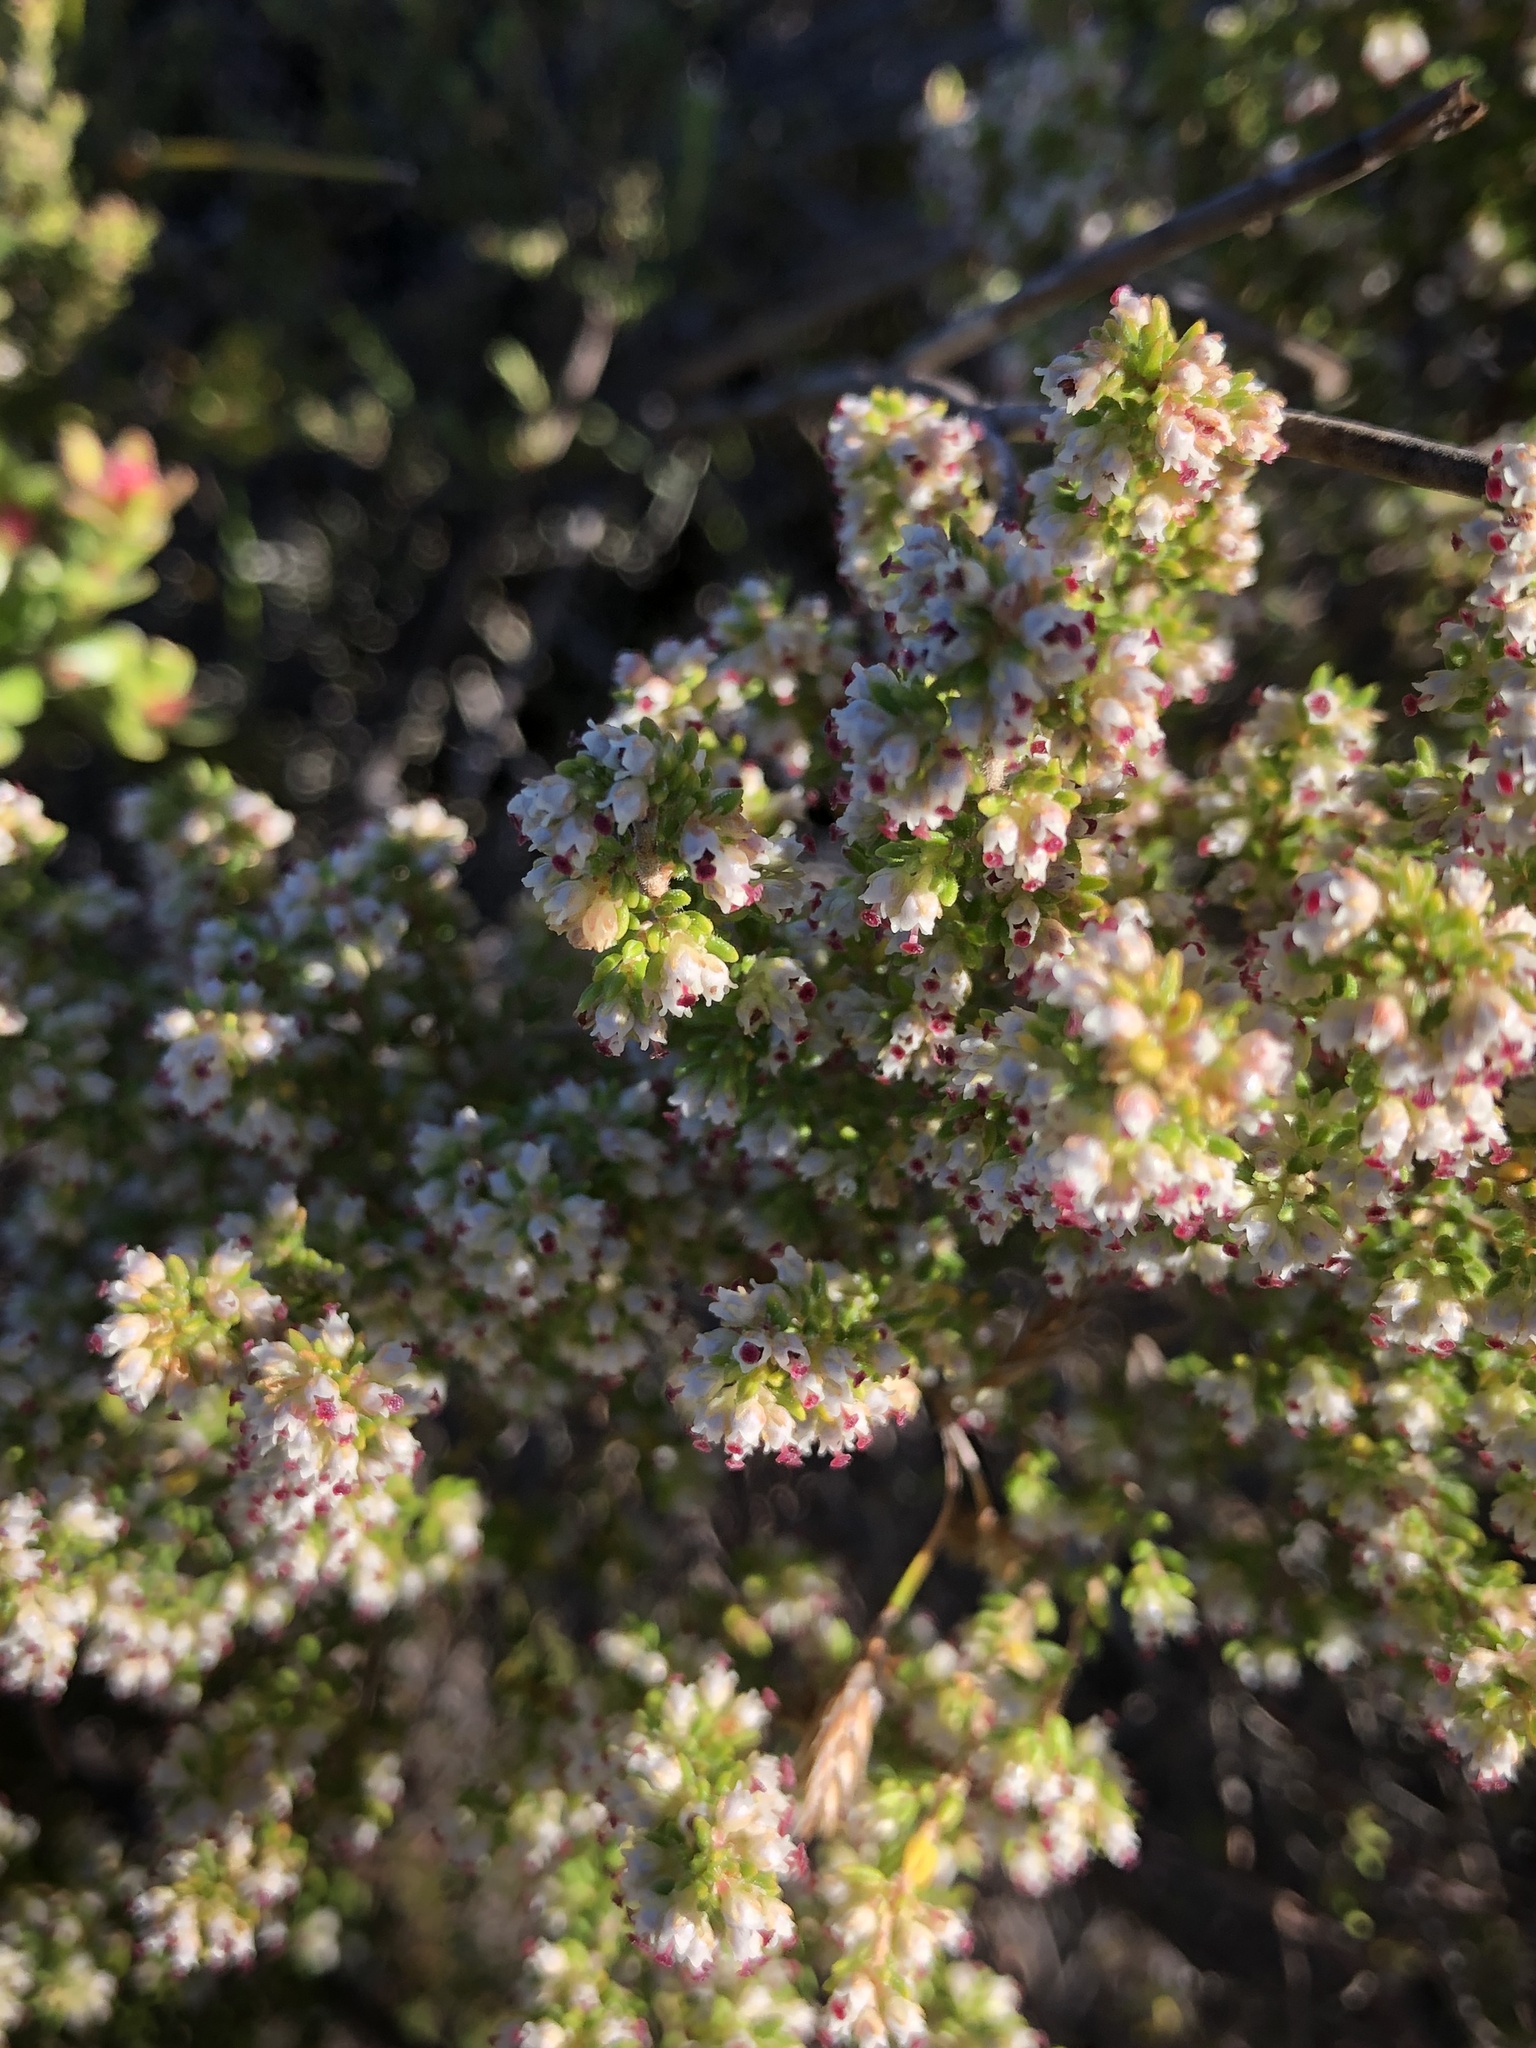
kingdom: Plantae
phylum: Tracheophyta
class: Magnoliopsida
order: Ericales
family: Ericaceae
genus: Erica
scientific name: Erica hispidula
